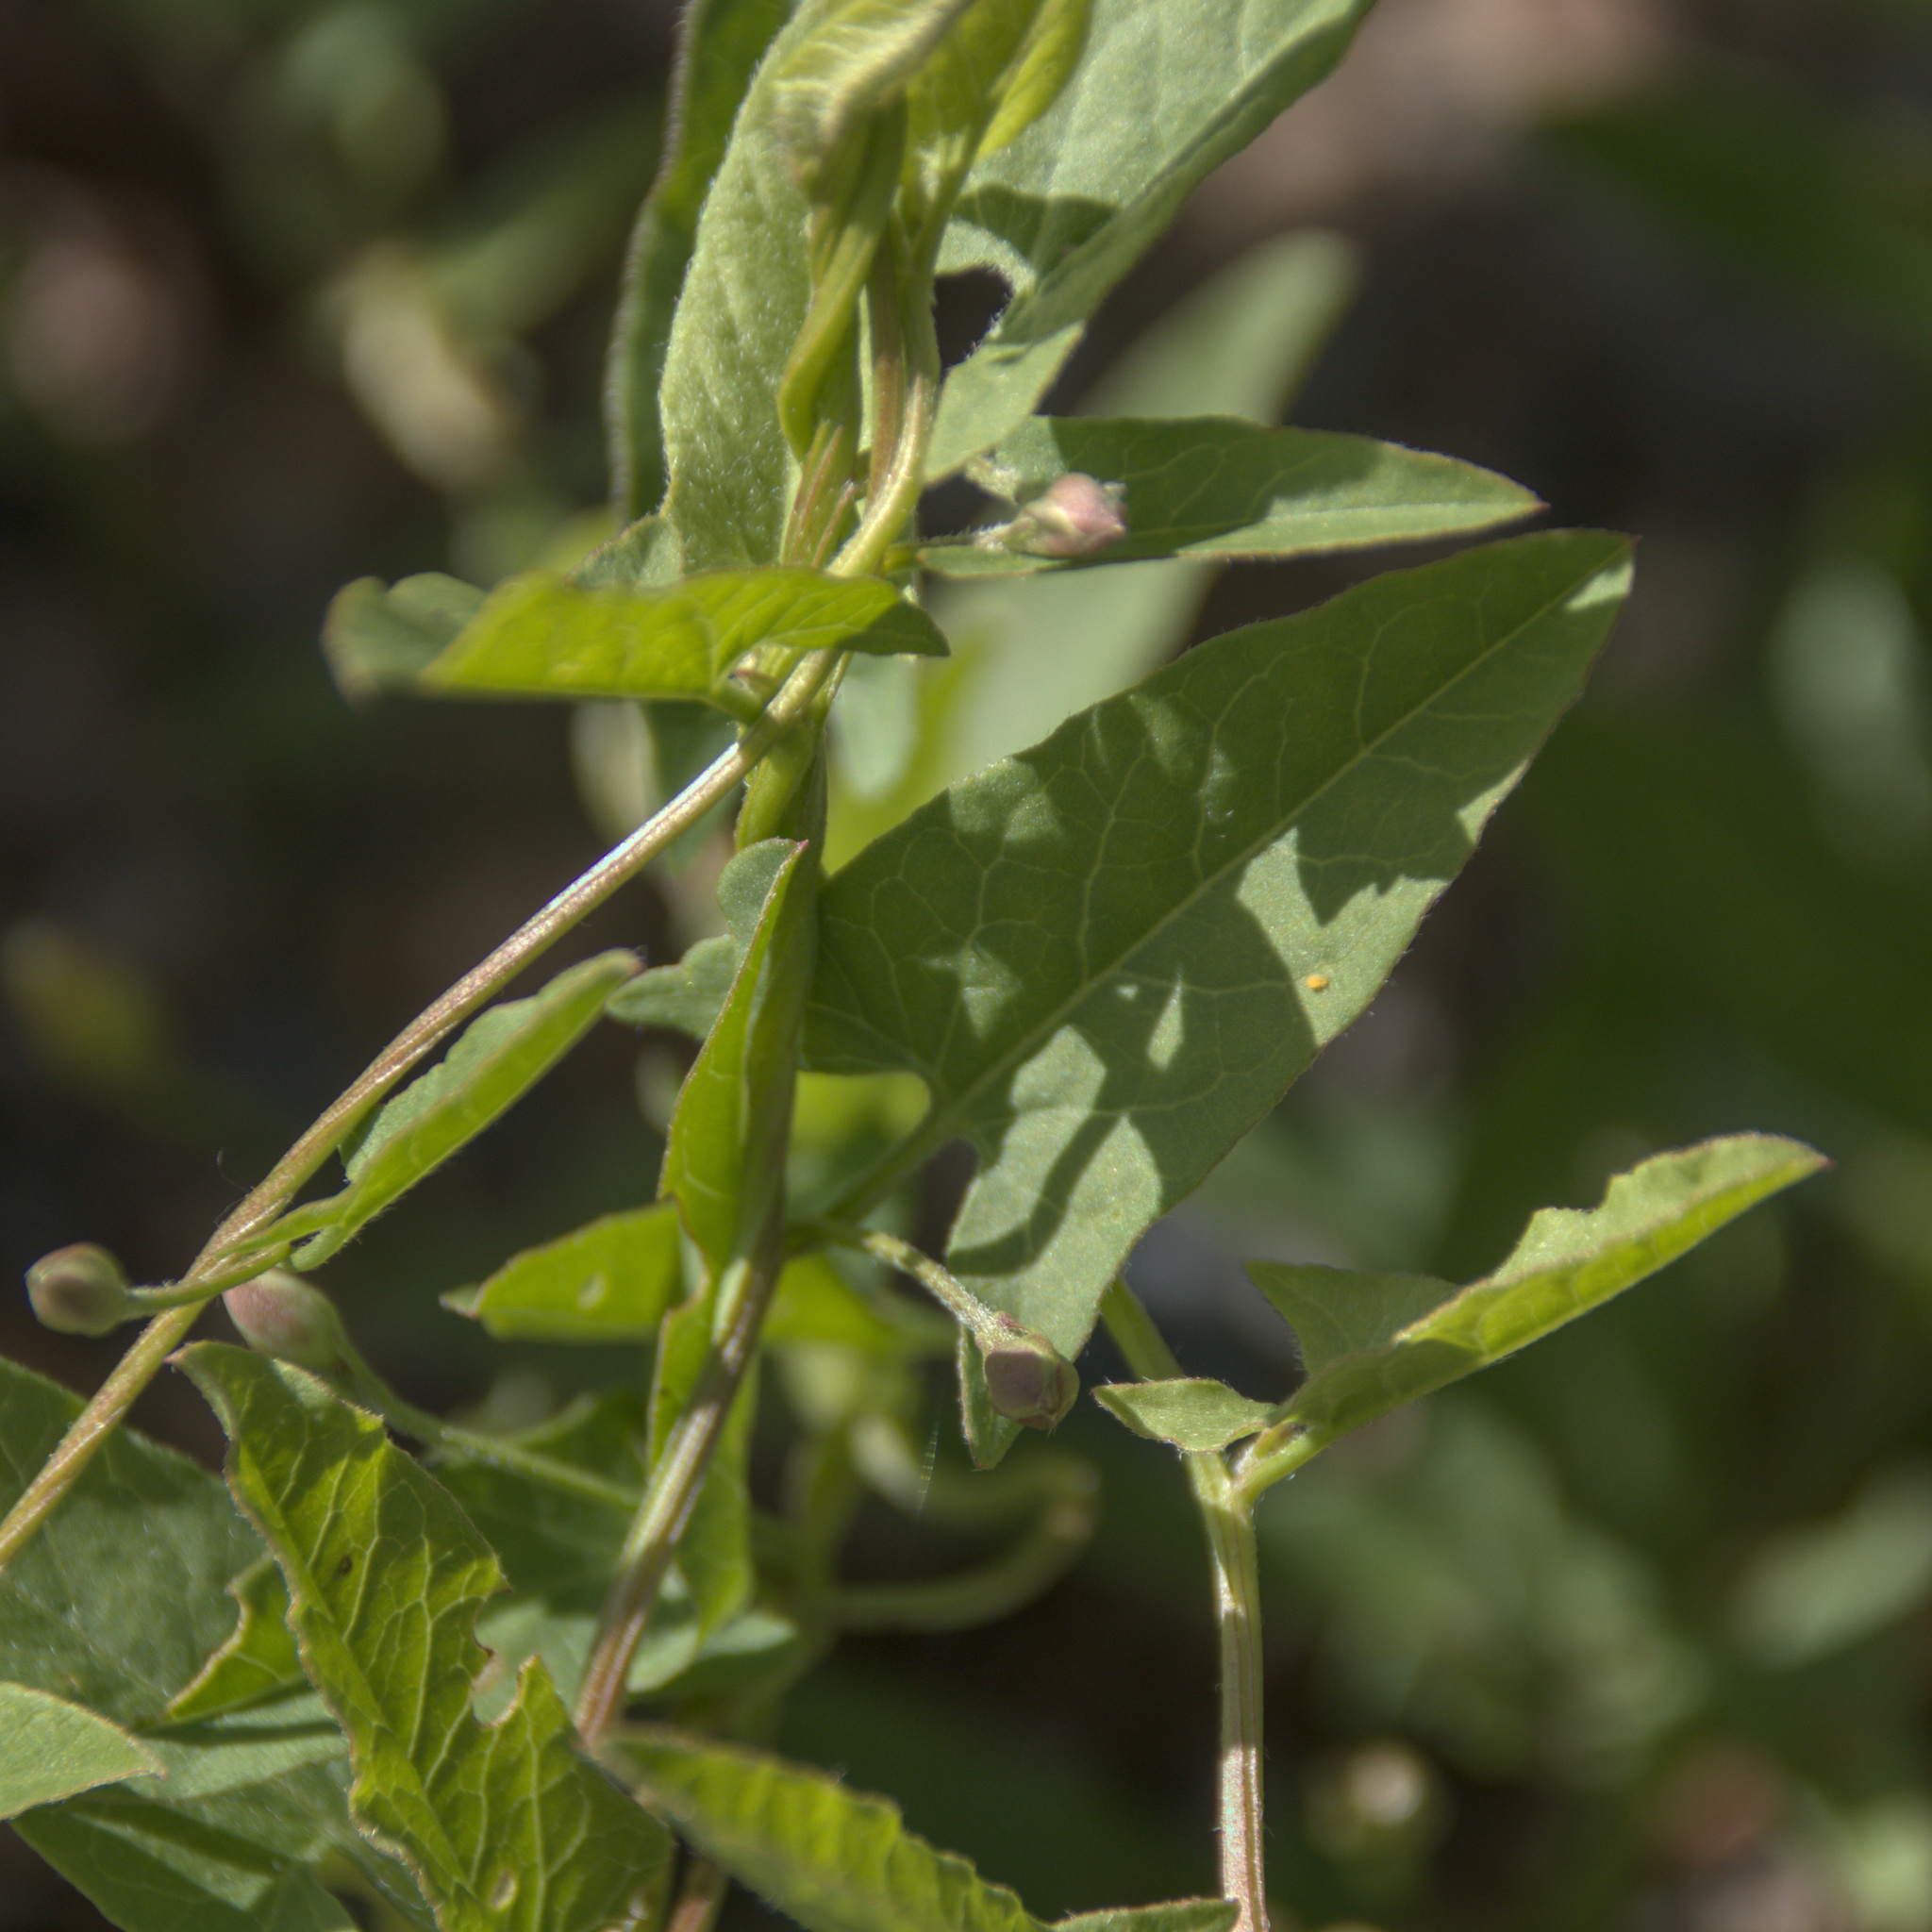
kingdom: Plantae
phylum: Tracheophyta
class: Magnoliopsida
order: Solanales
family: Convolvulaceae
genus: Convolvulus
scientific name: Convolvulus arvensis
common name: Field bindweed
